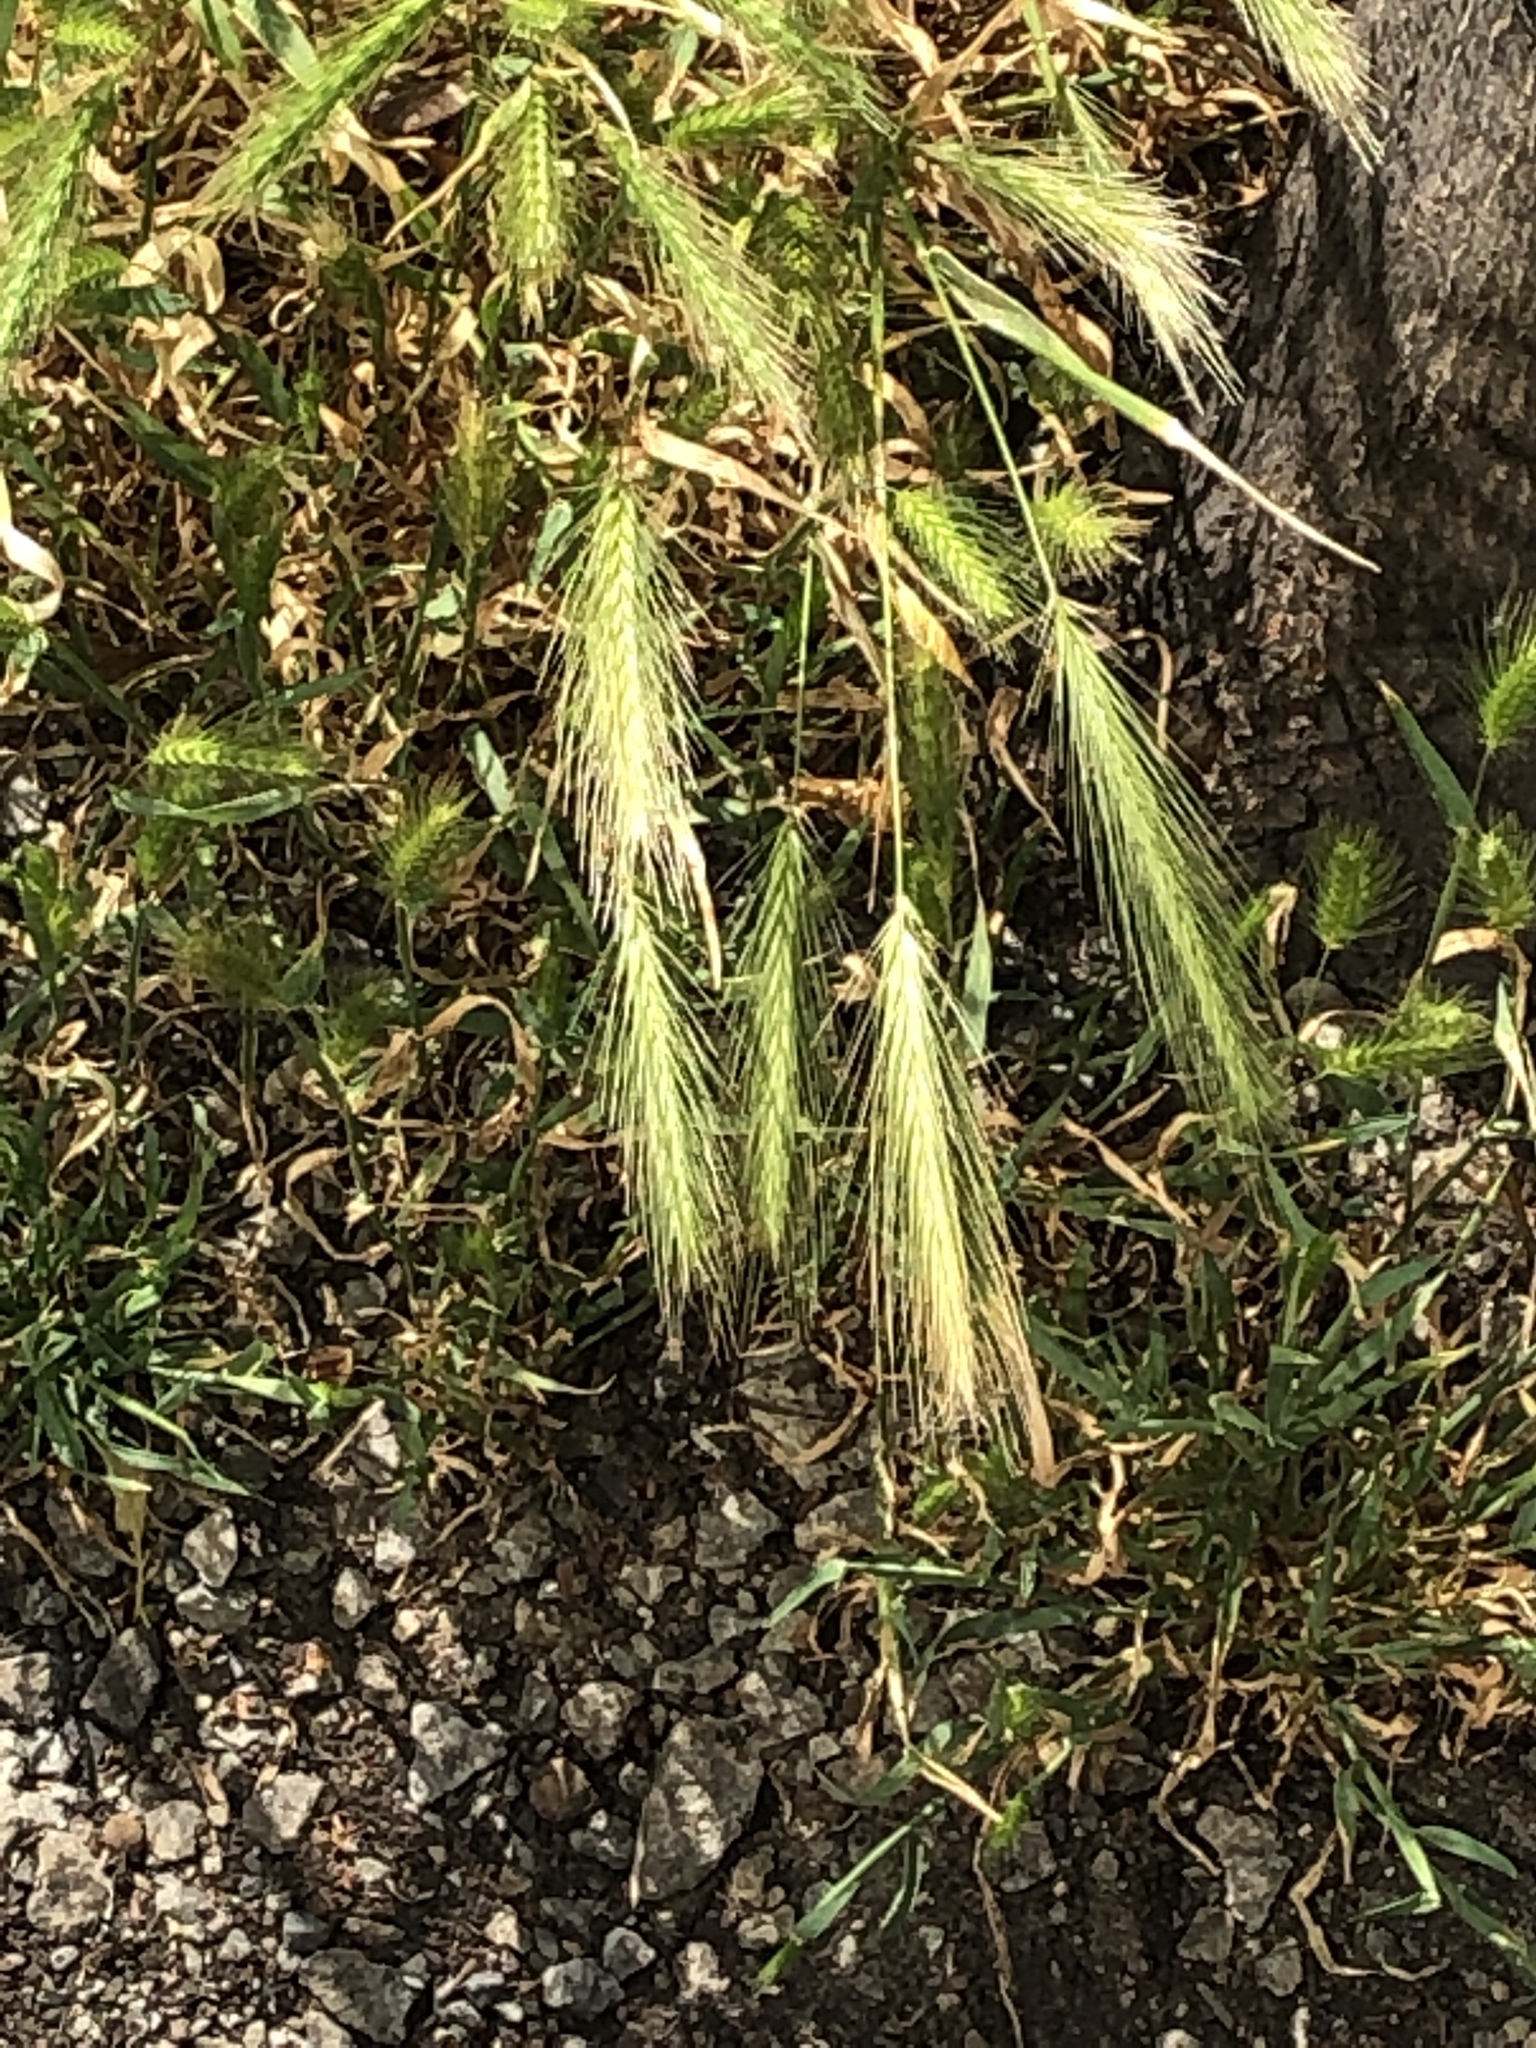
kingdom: Plantae
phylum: Tracheophyta
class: Liliopsida
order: Poales
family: Poaceae
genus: Hordeum
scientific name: Hordeum murinum
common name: Wall barley
